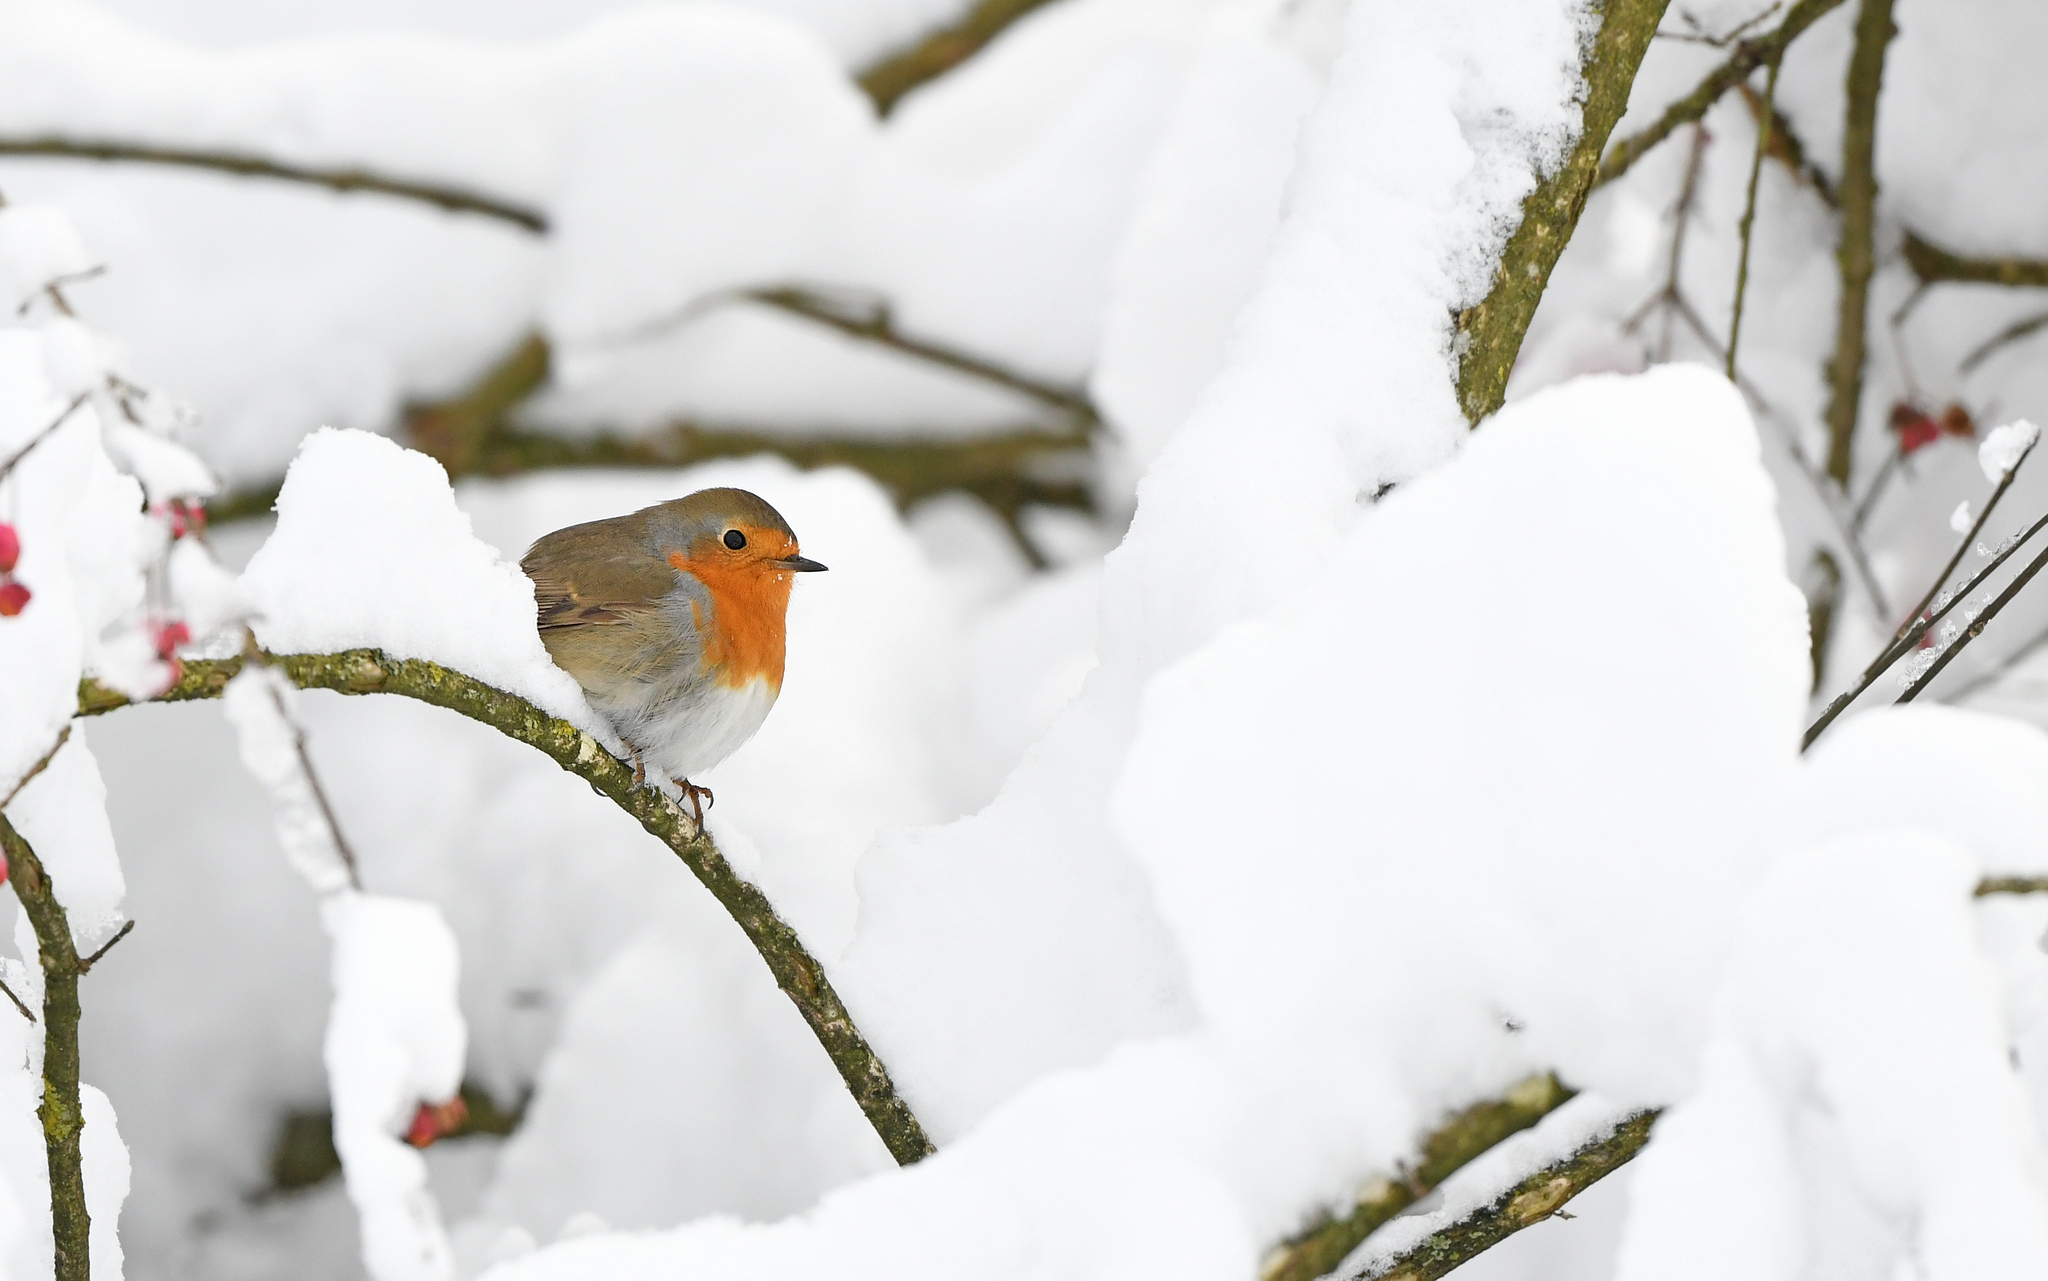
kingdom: Animalia
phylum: Chordata
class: Aves
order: Passeriformes
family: Muscicapidae
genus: Erithacus
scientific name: Erithacus rubecula
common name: European robin
